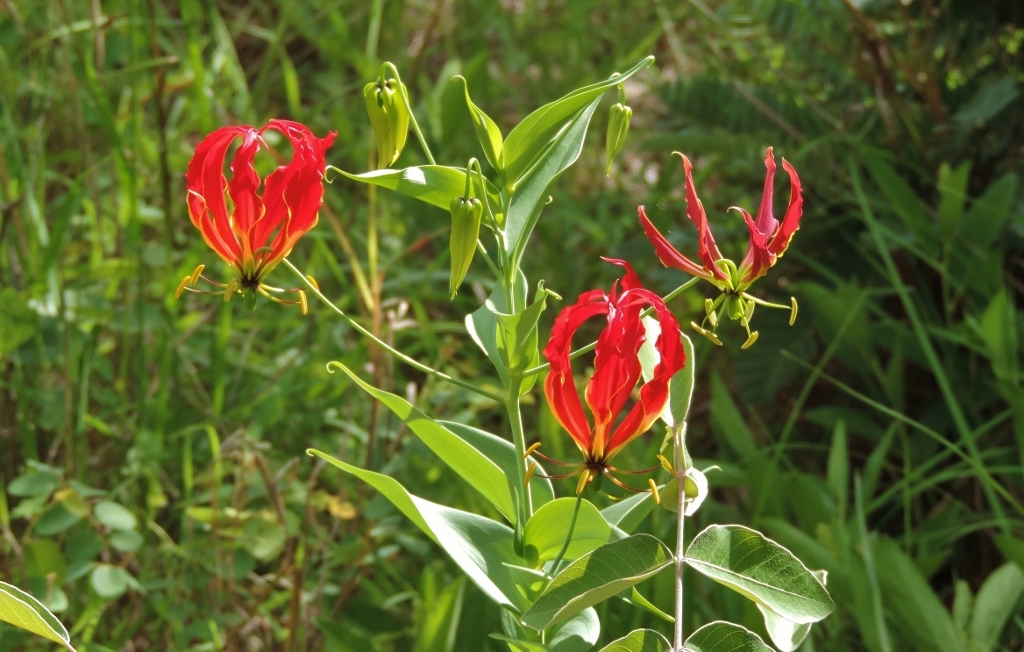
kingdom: Plantae
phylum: Tracheophyta
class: Liliopsida
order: Liliales
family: Colchicaceae
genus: Gloriosa
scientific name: Gloriosa superba
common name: Flame lily
